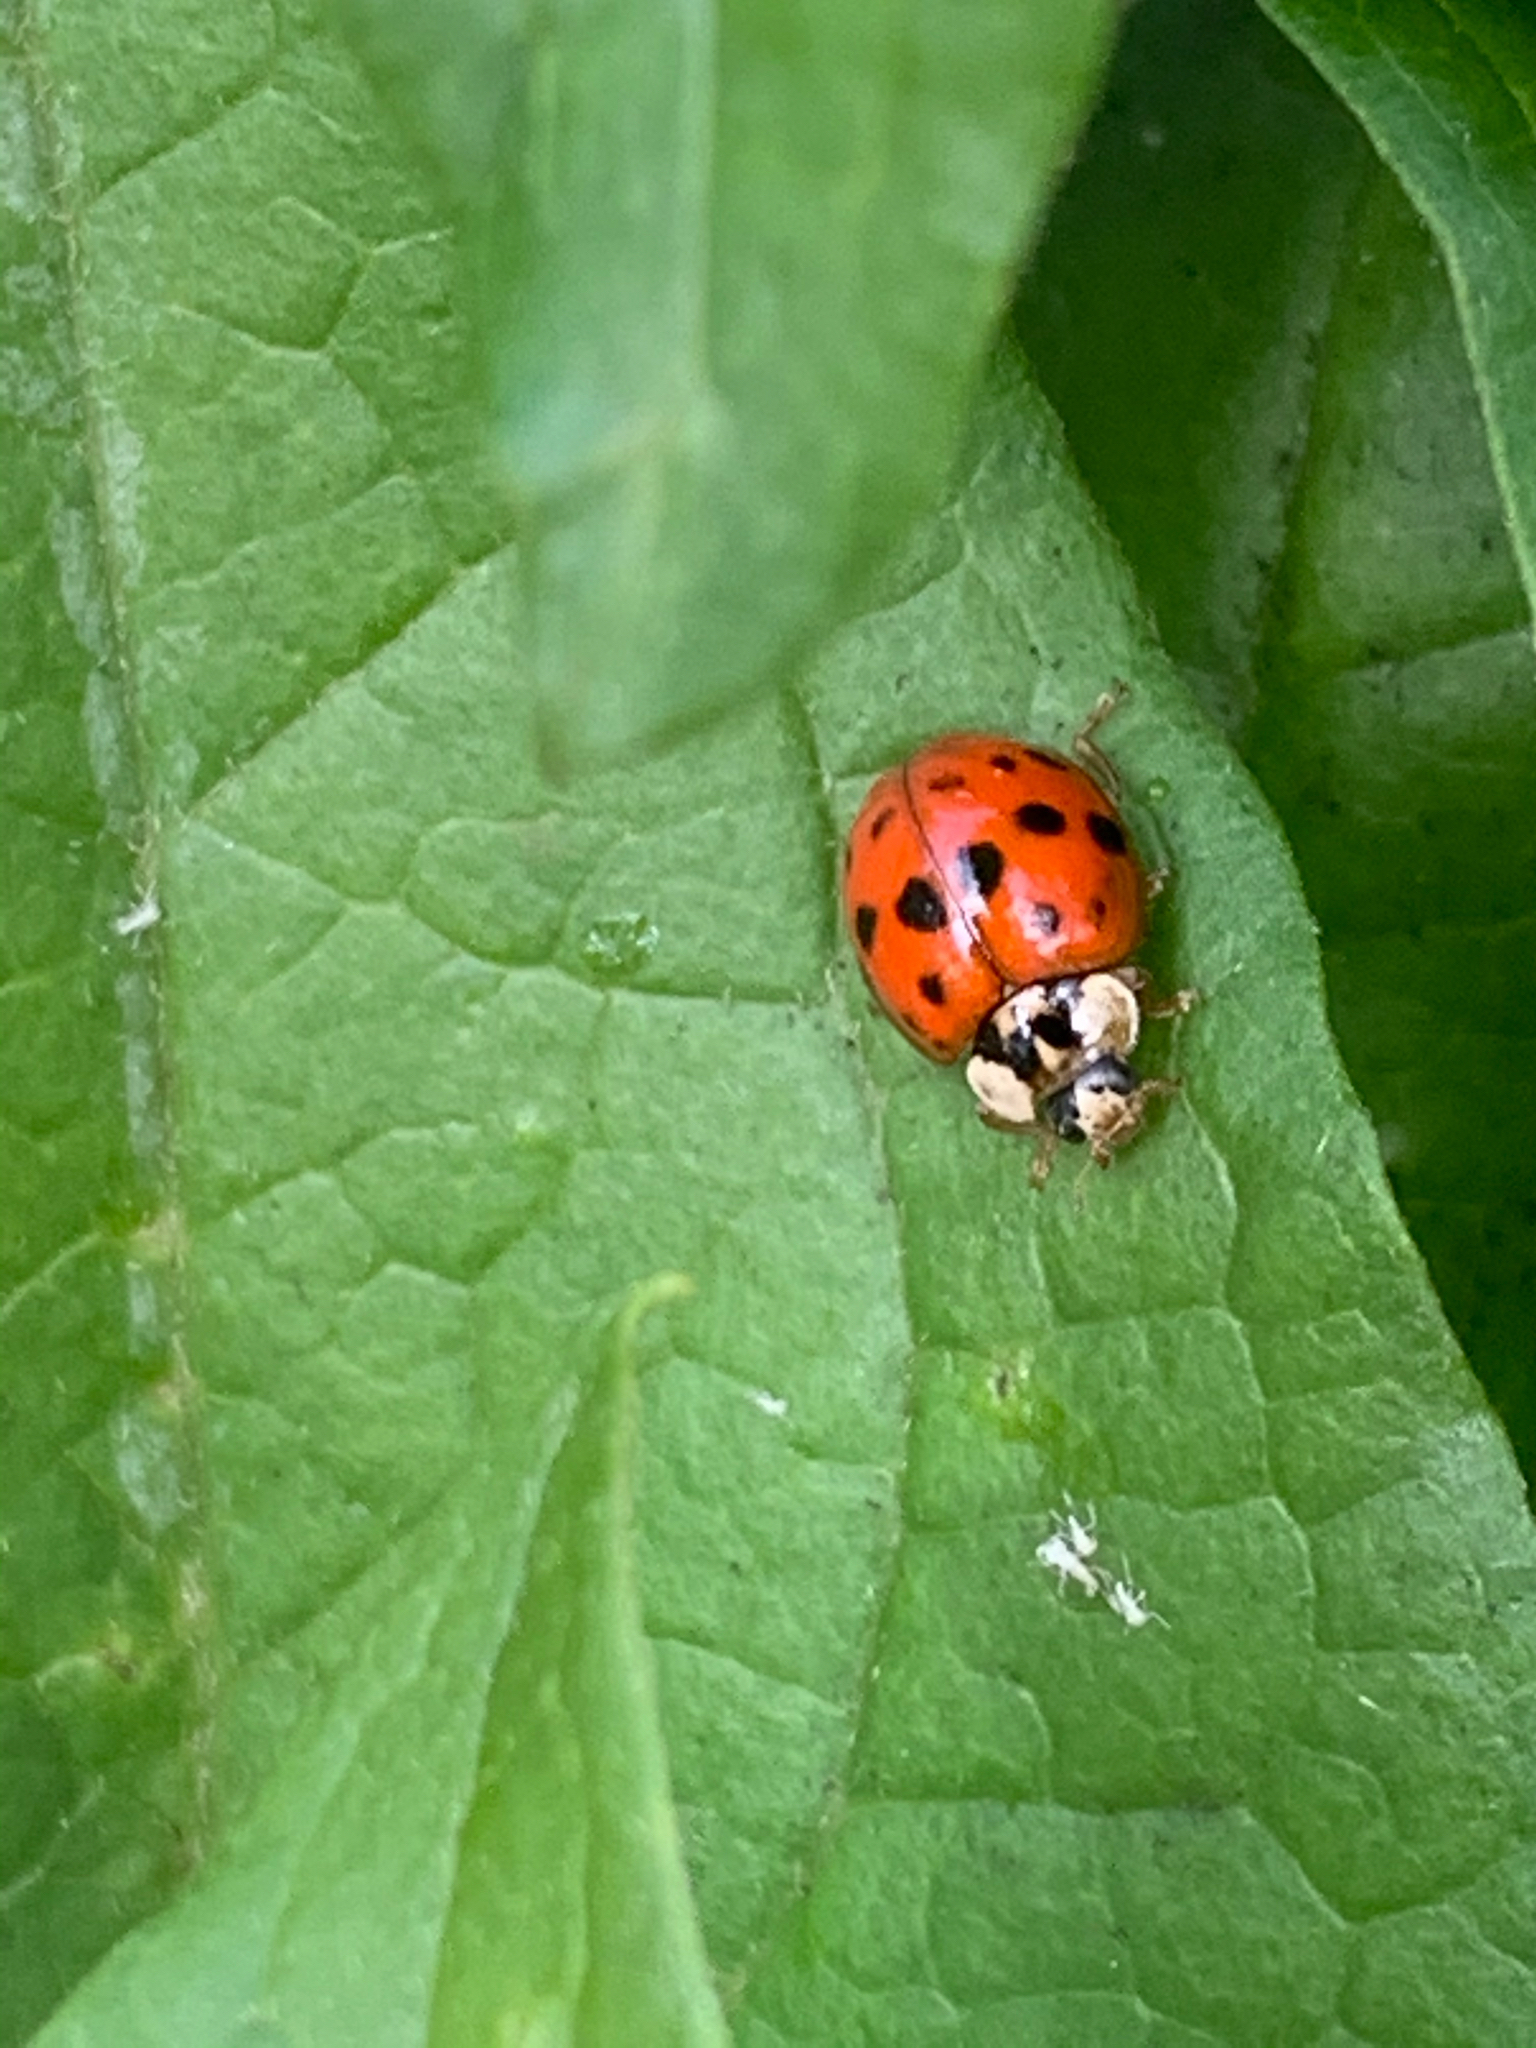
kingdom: Animalia
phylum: Arthropoda
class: Insecta
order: Coleoptera
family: Coccinellidae
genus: Harmonia
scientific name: Harmonia axyridis
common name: Harlequin ladybird
